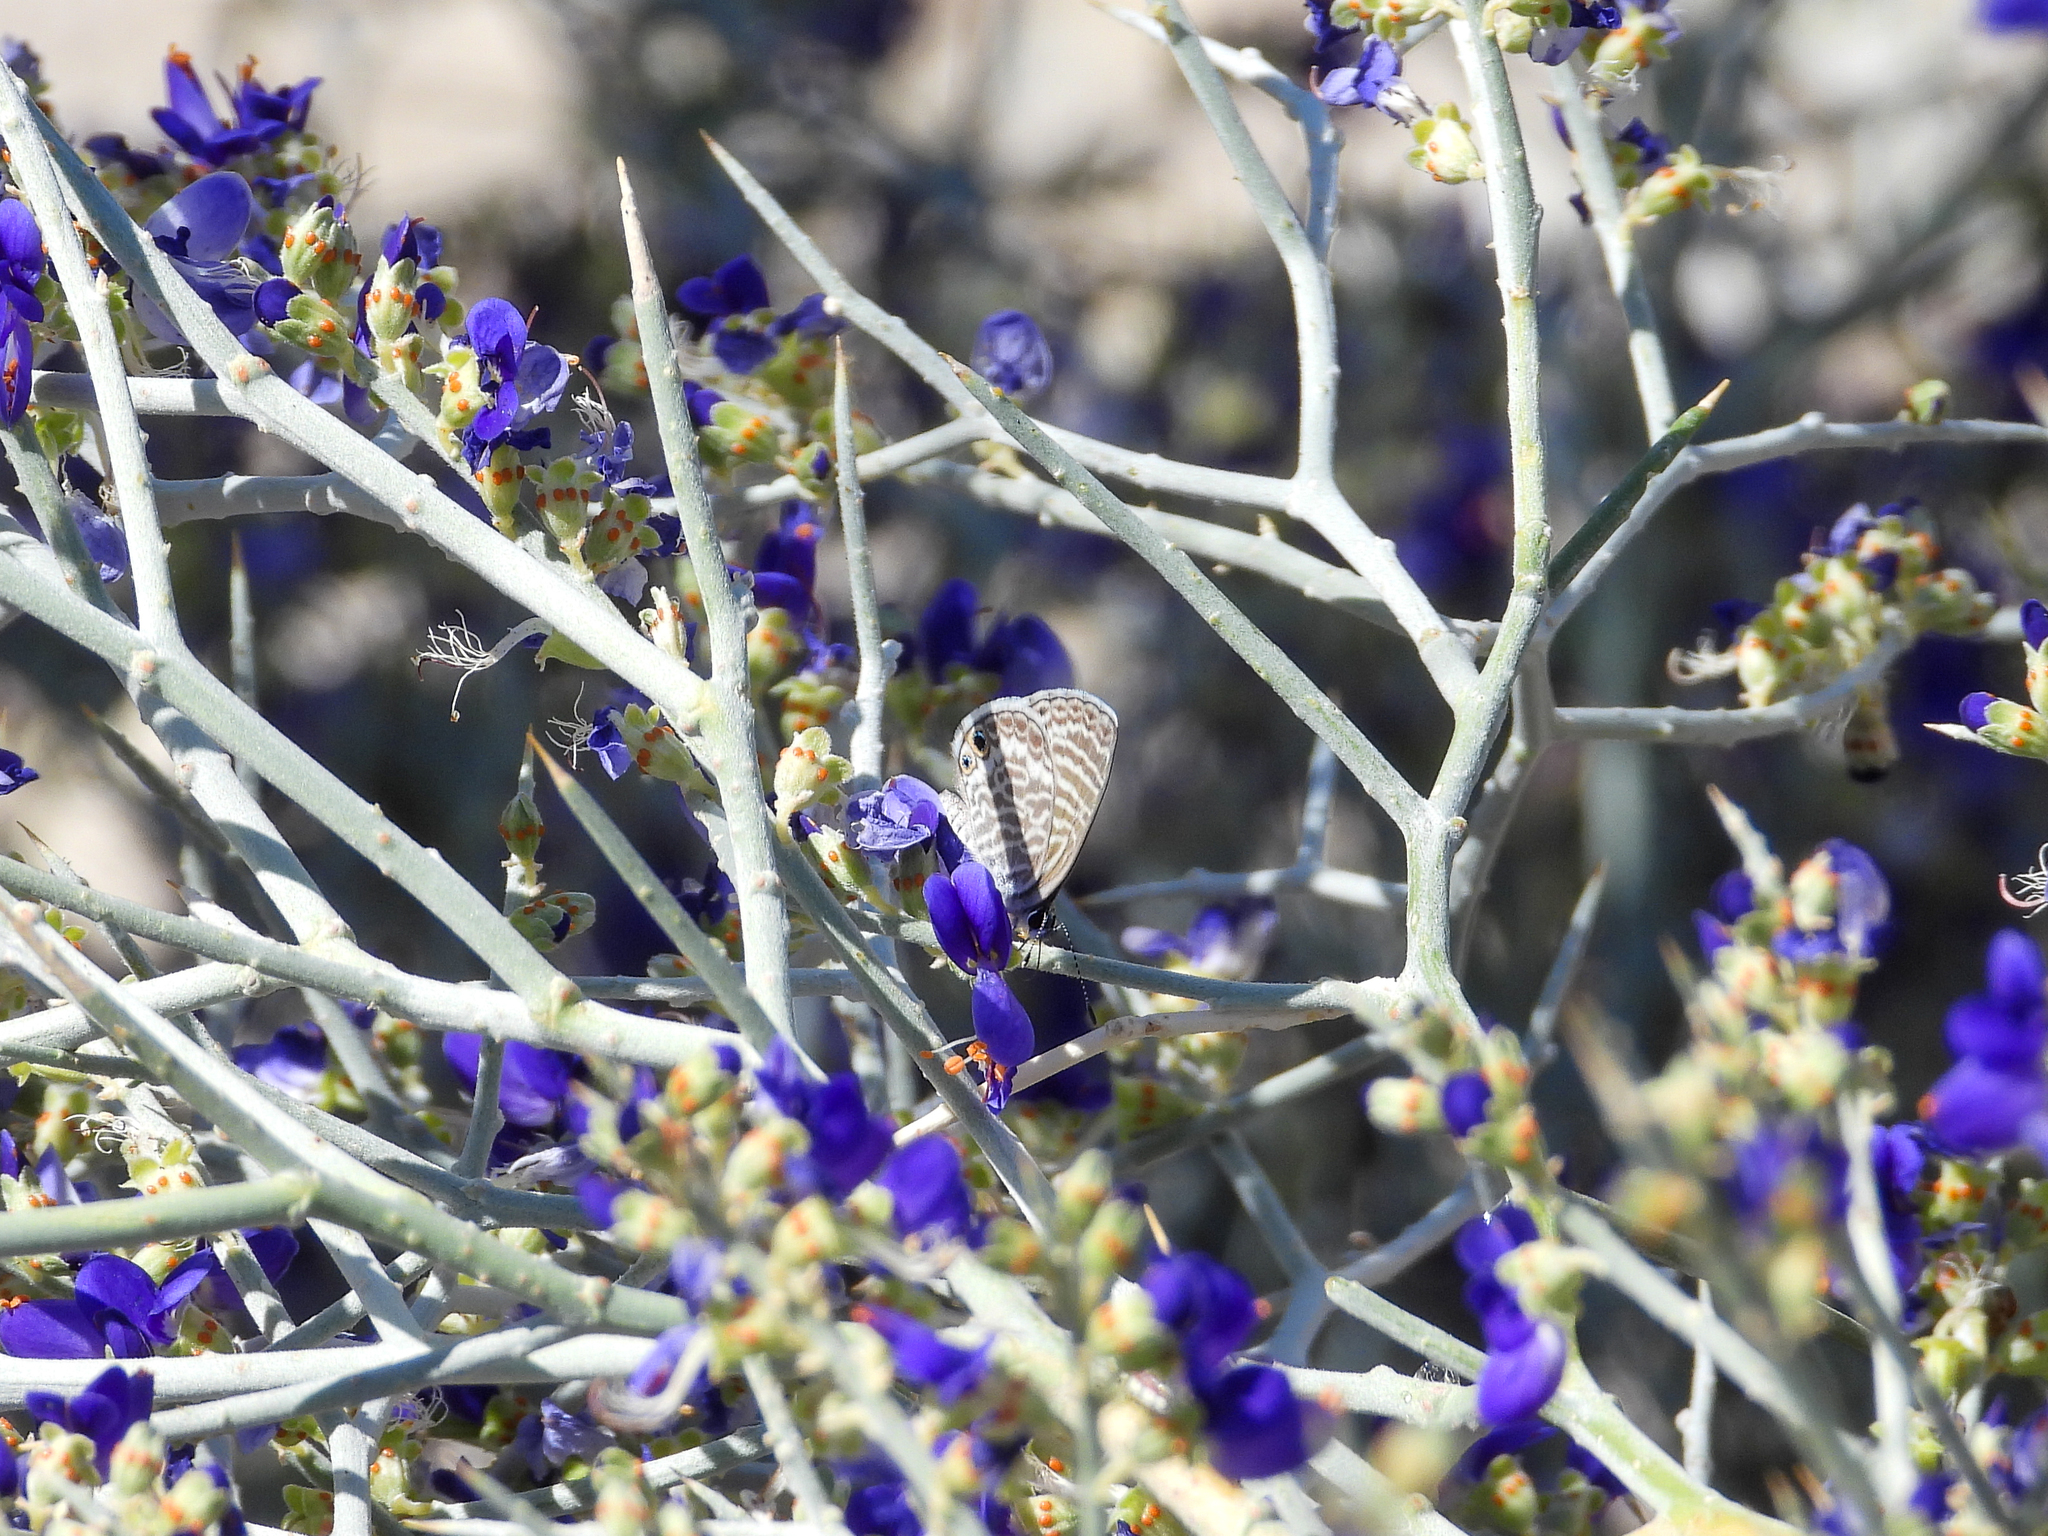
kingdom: Animalia
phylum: Arthropoda
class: Insecta
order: Lepidoptera
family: Lycaenidae
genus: Leptotes
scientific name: Leptotes marina
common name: Marine blue
